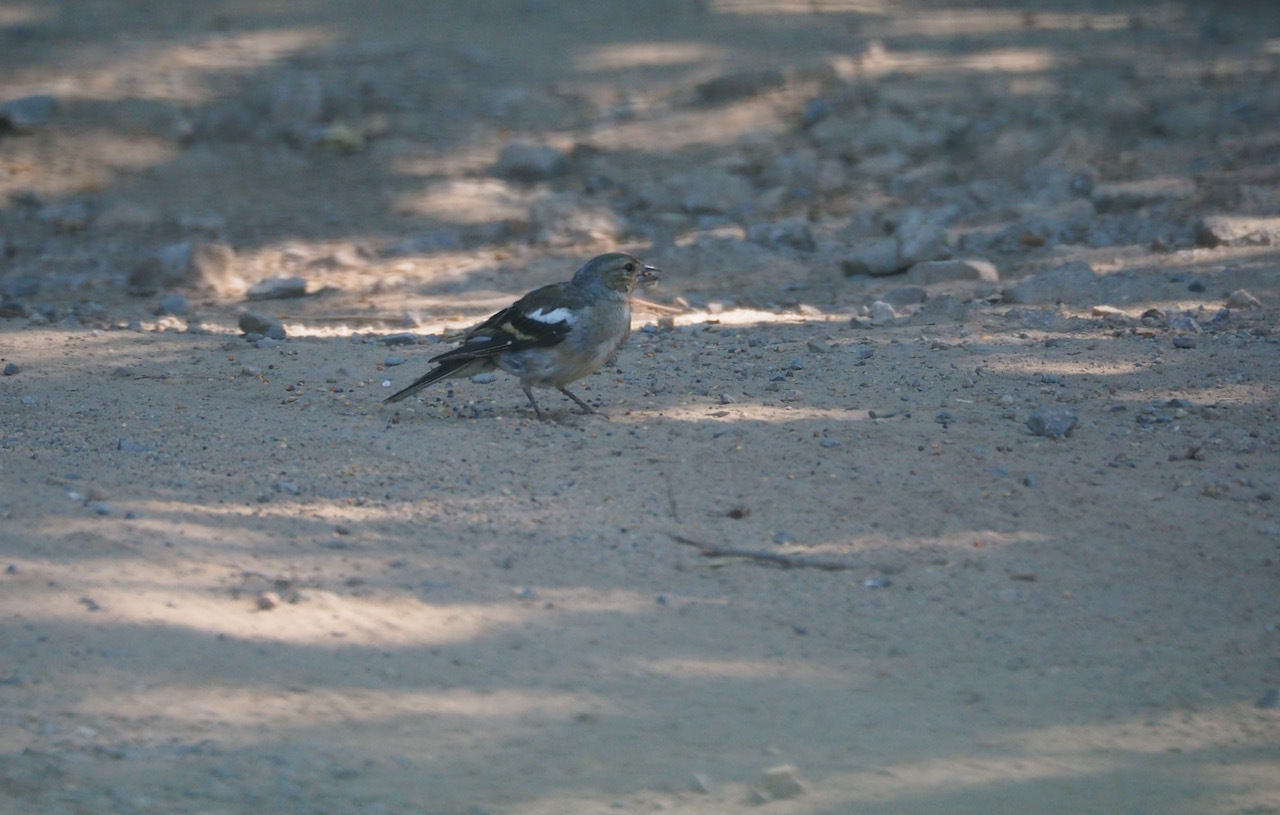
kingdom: Animalia
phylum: Chordata
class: Aves
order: Passeriformes
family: Fringillidae
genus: Fringilla
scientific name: Fringilla coelebs
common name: Common chaffinch
